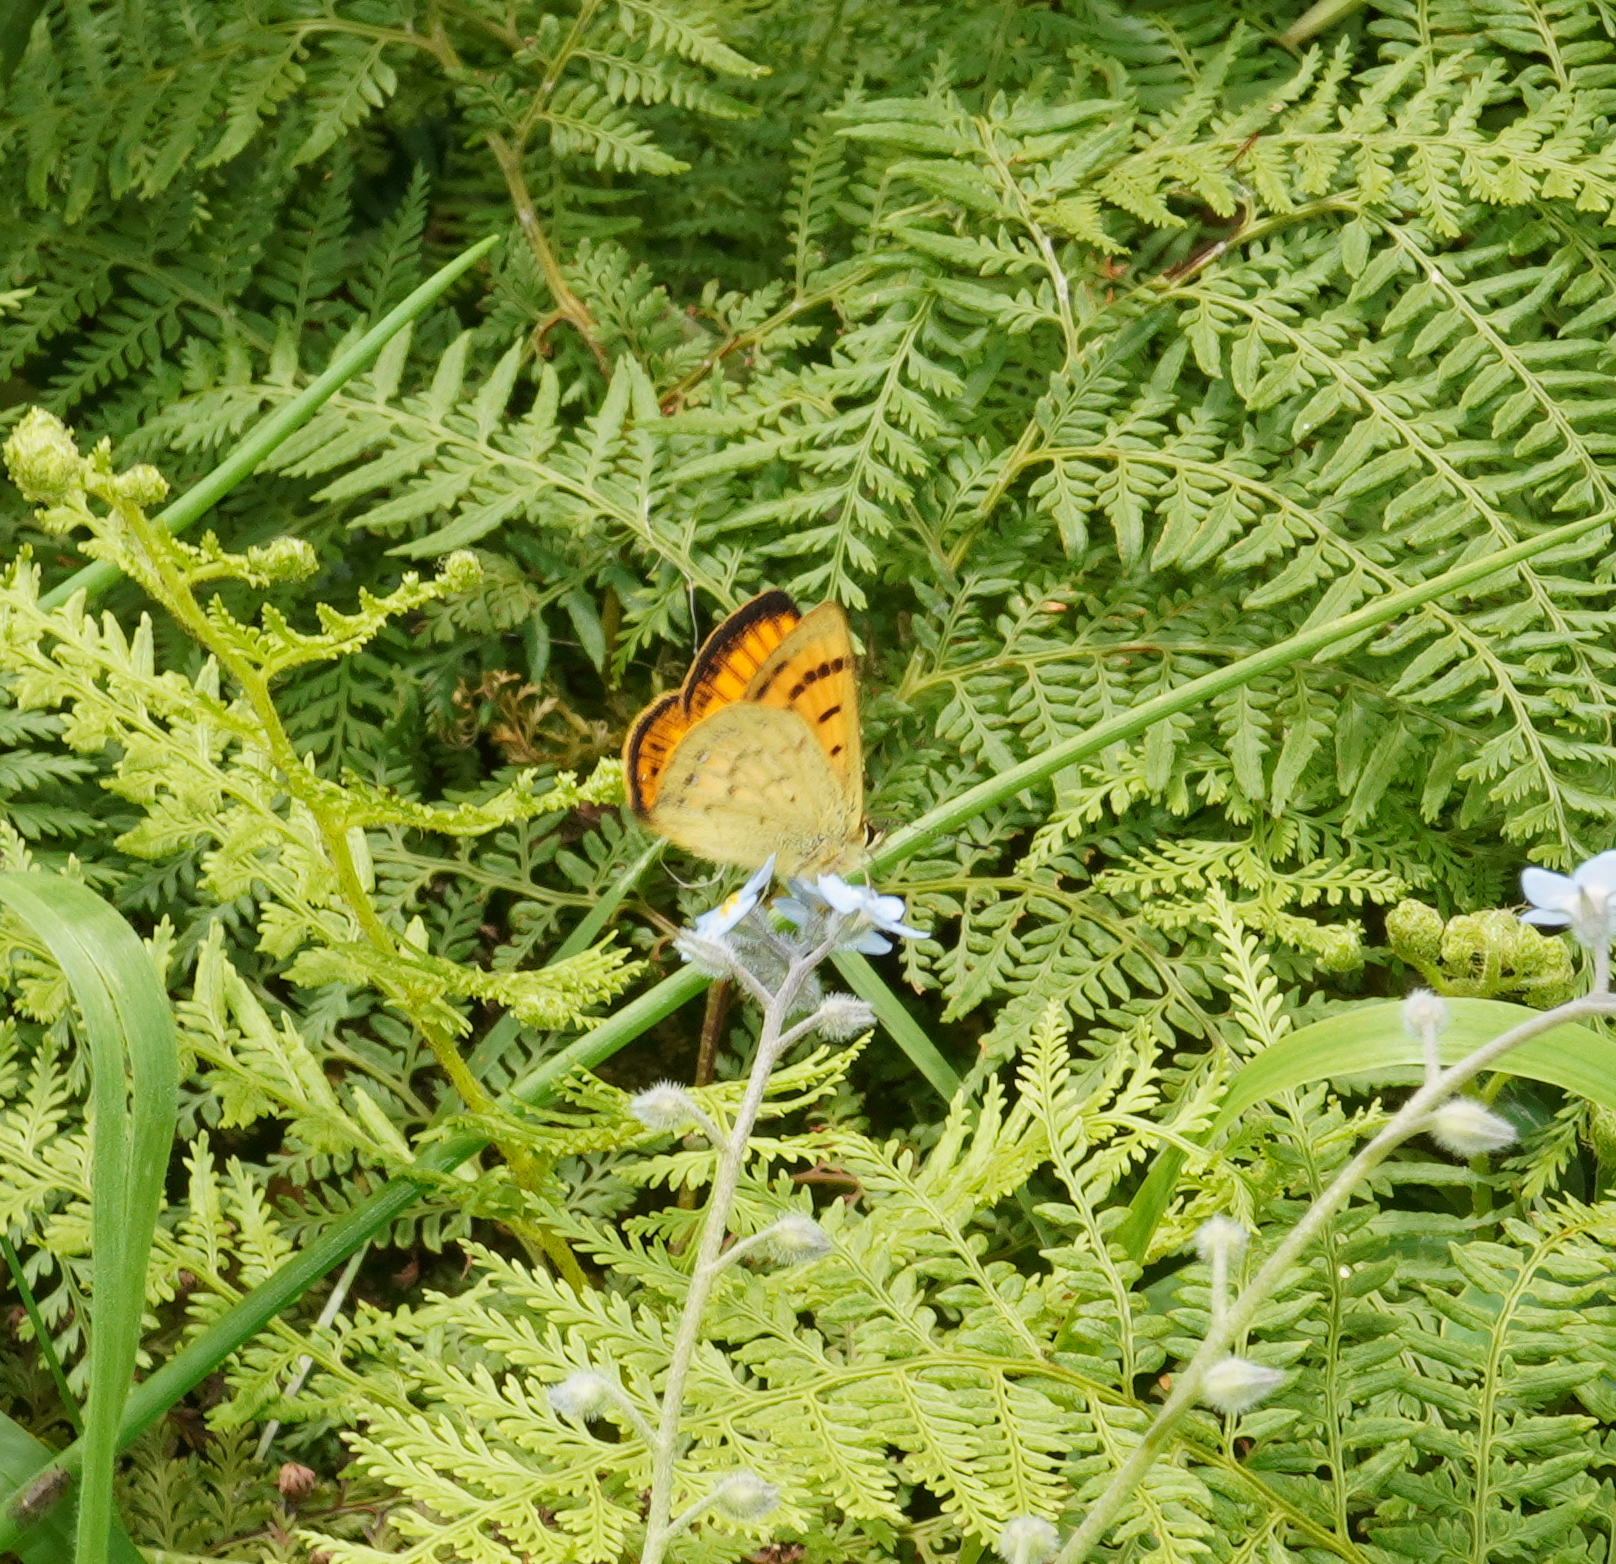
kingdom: Animalia
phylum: Arthropoda
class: Insecta
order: Lepidoptera
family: Lycaenidae
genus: Lycaena
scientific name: Lycaena salustius
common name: North island coastal copper
